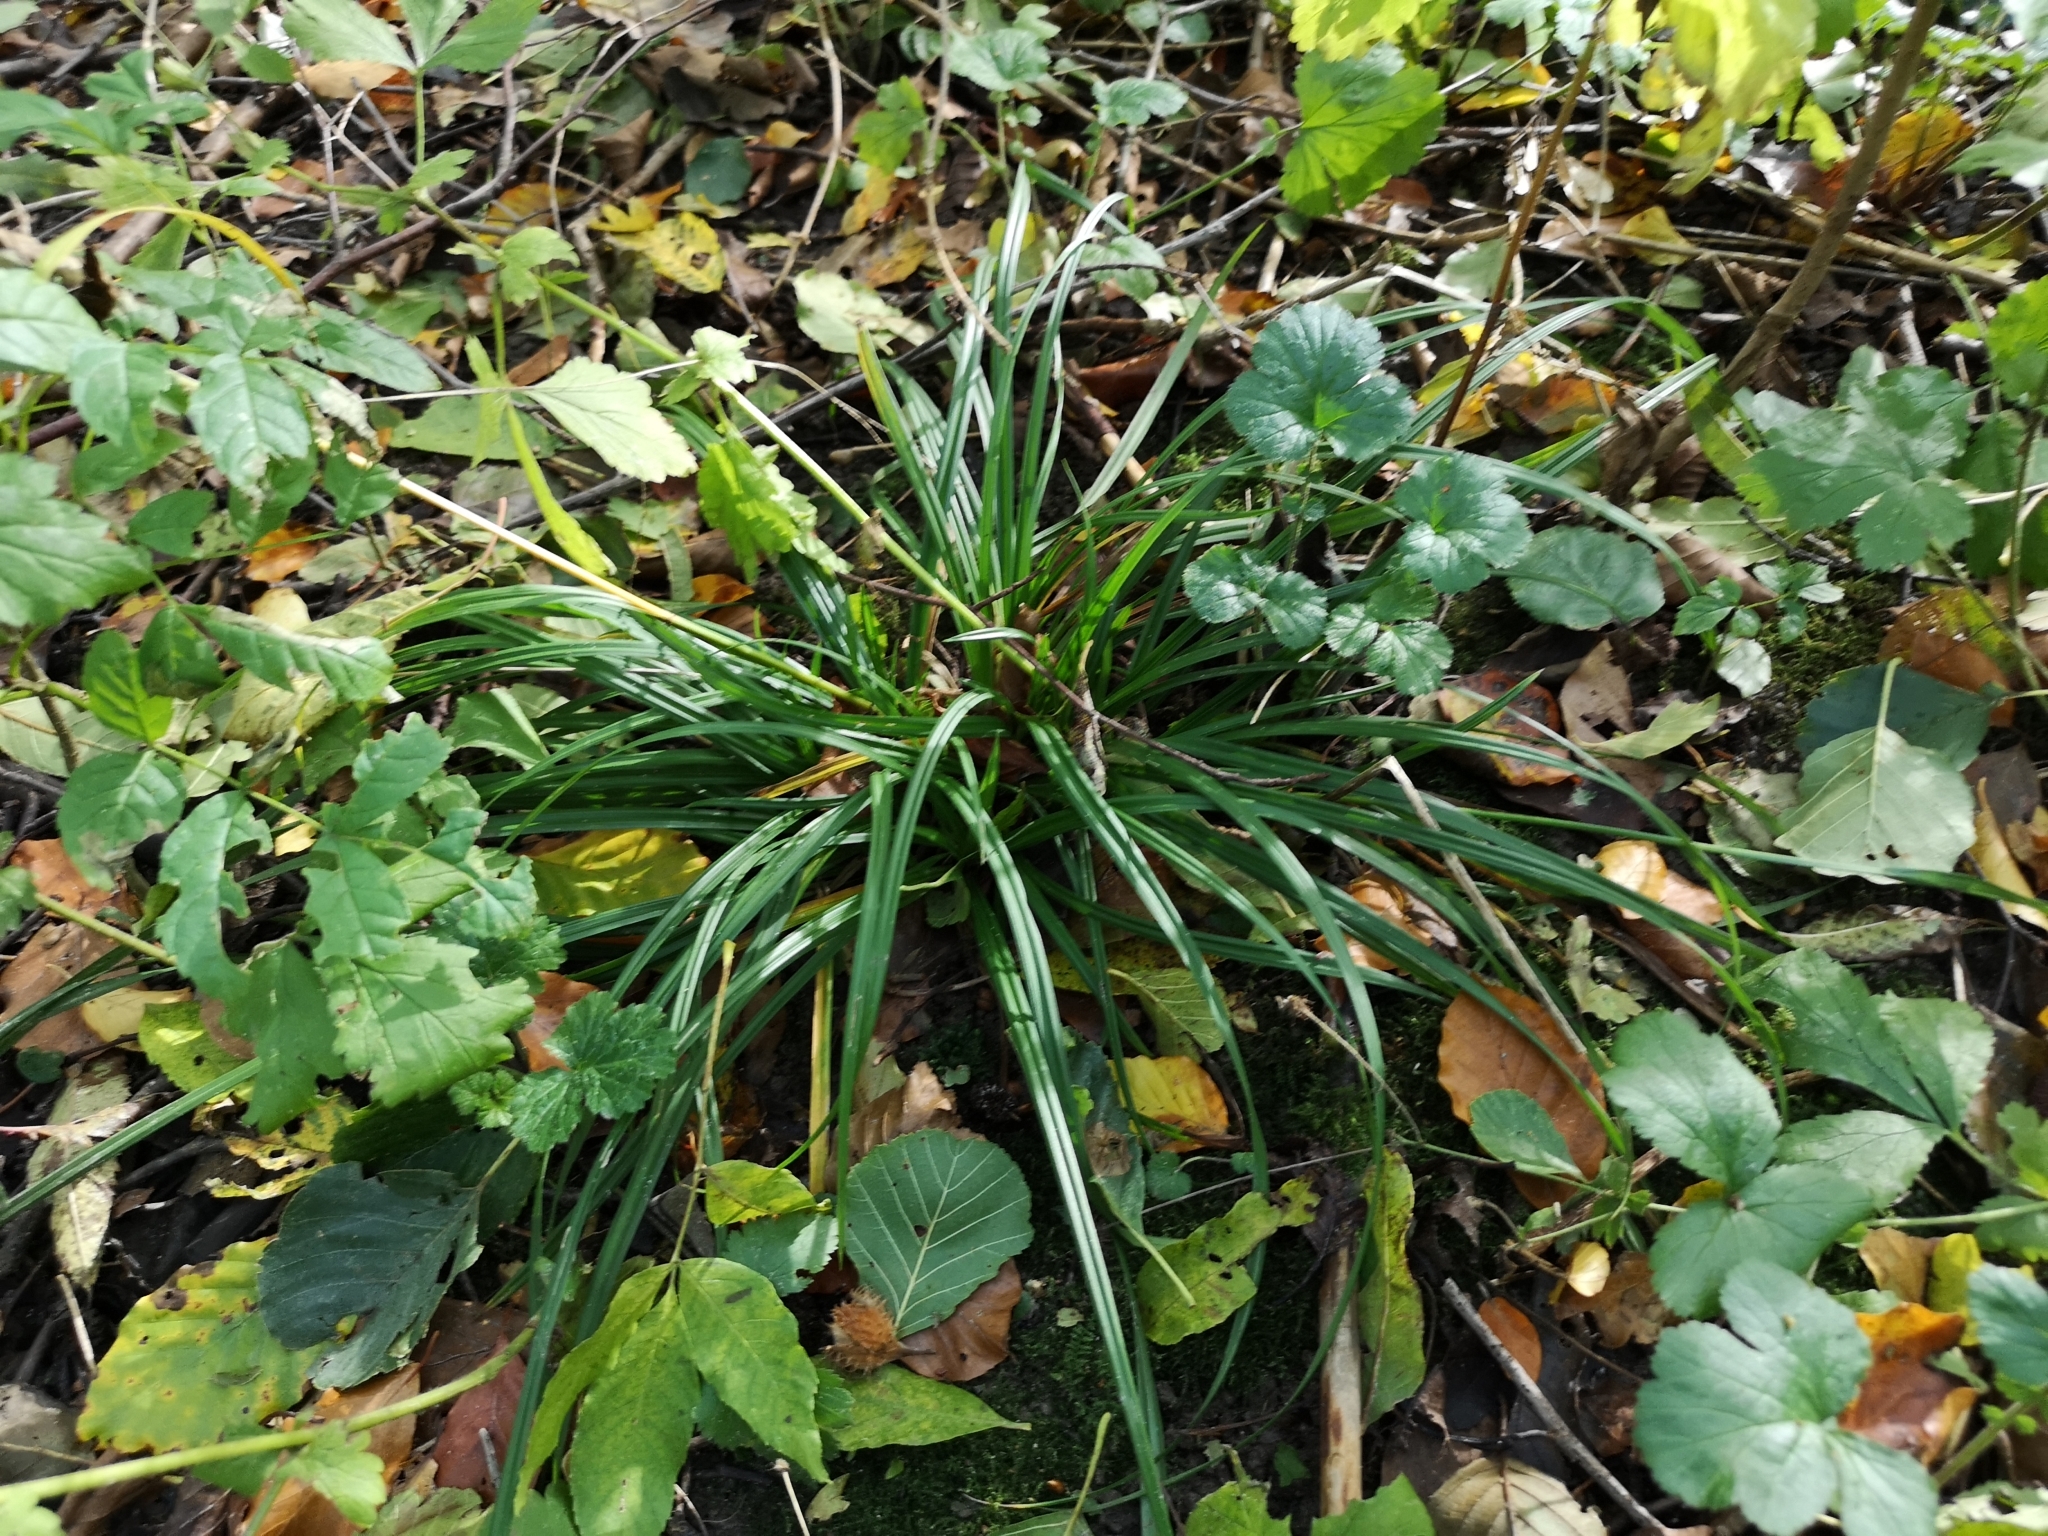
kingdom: Plantae
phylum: Tracheophyta
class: Liliopsida
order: Poales
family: Cyperaceae
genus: Carex
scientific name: Carex sylvatica
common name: Wood-sedge
